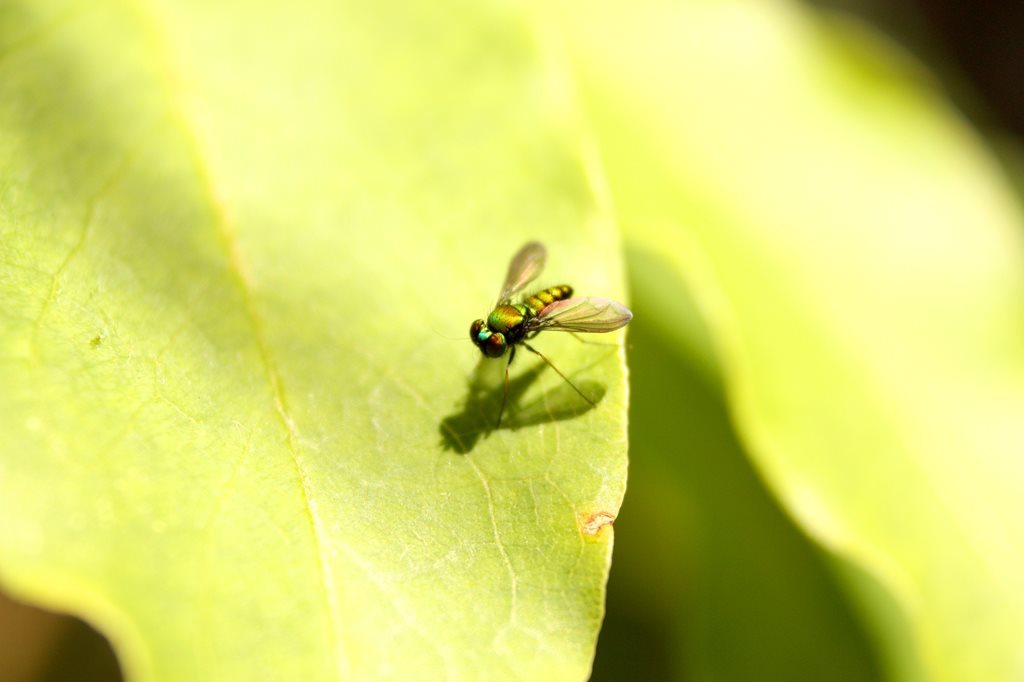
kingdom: Animalia
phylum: Arthropoda
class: Insecta
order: Diptera
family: Dolichopodidae
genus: Krakatauia
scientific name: Krakatauia macalpinei
